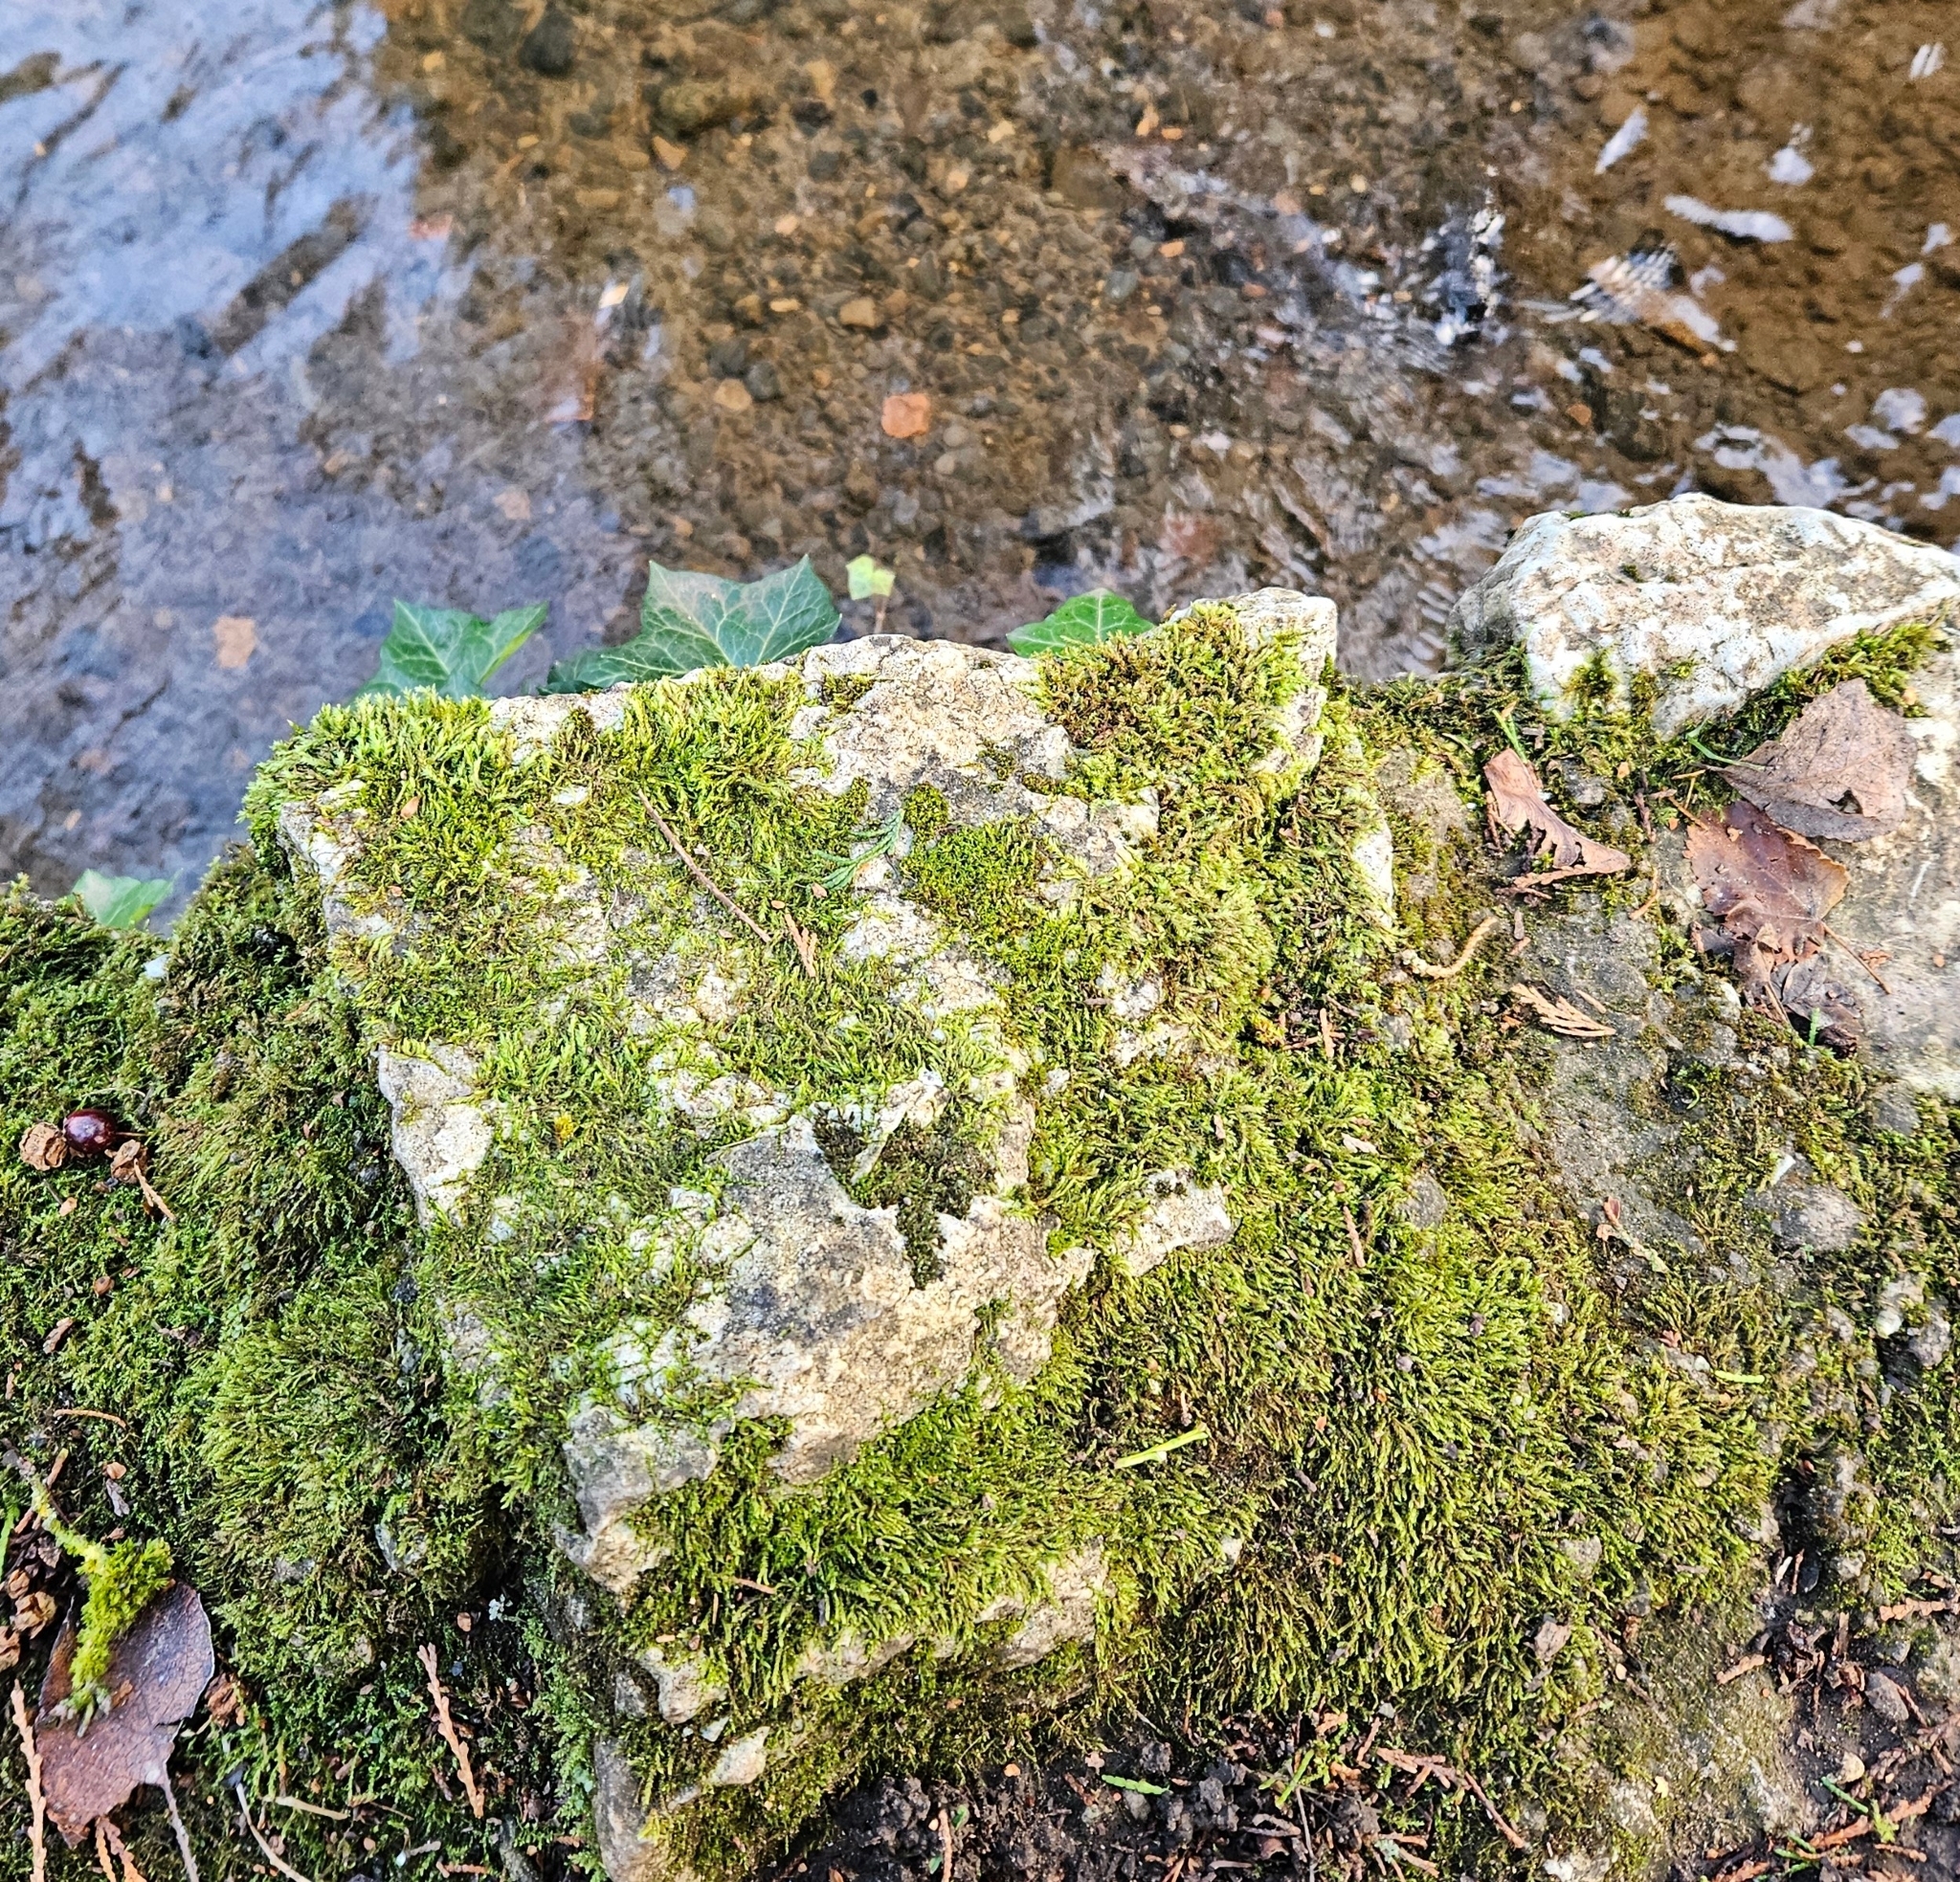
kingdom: Plantae
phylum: Bryophyta
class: Bryopsida
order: Hypnales
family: Brachytheciaceae
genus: Rhynchostegium
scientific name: Rhynchostegium riparioides
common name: Platyhypnidium moss
